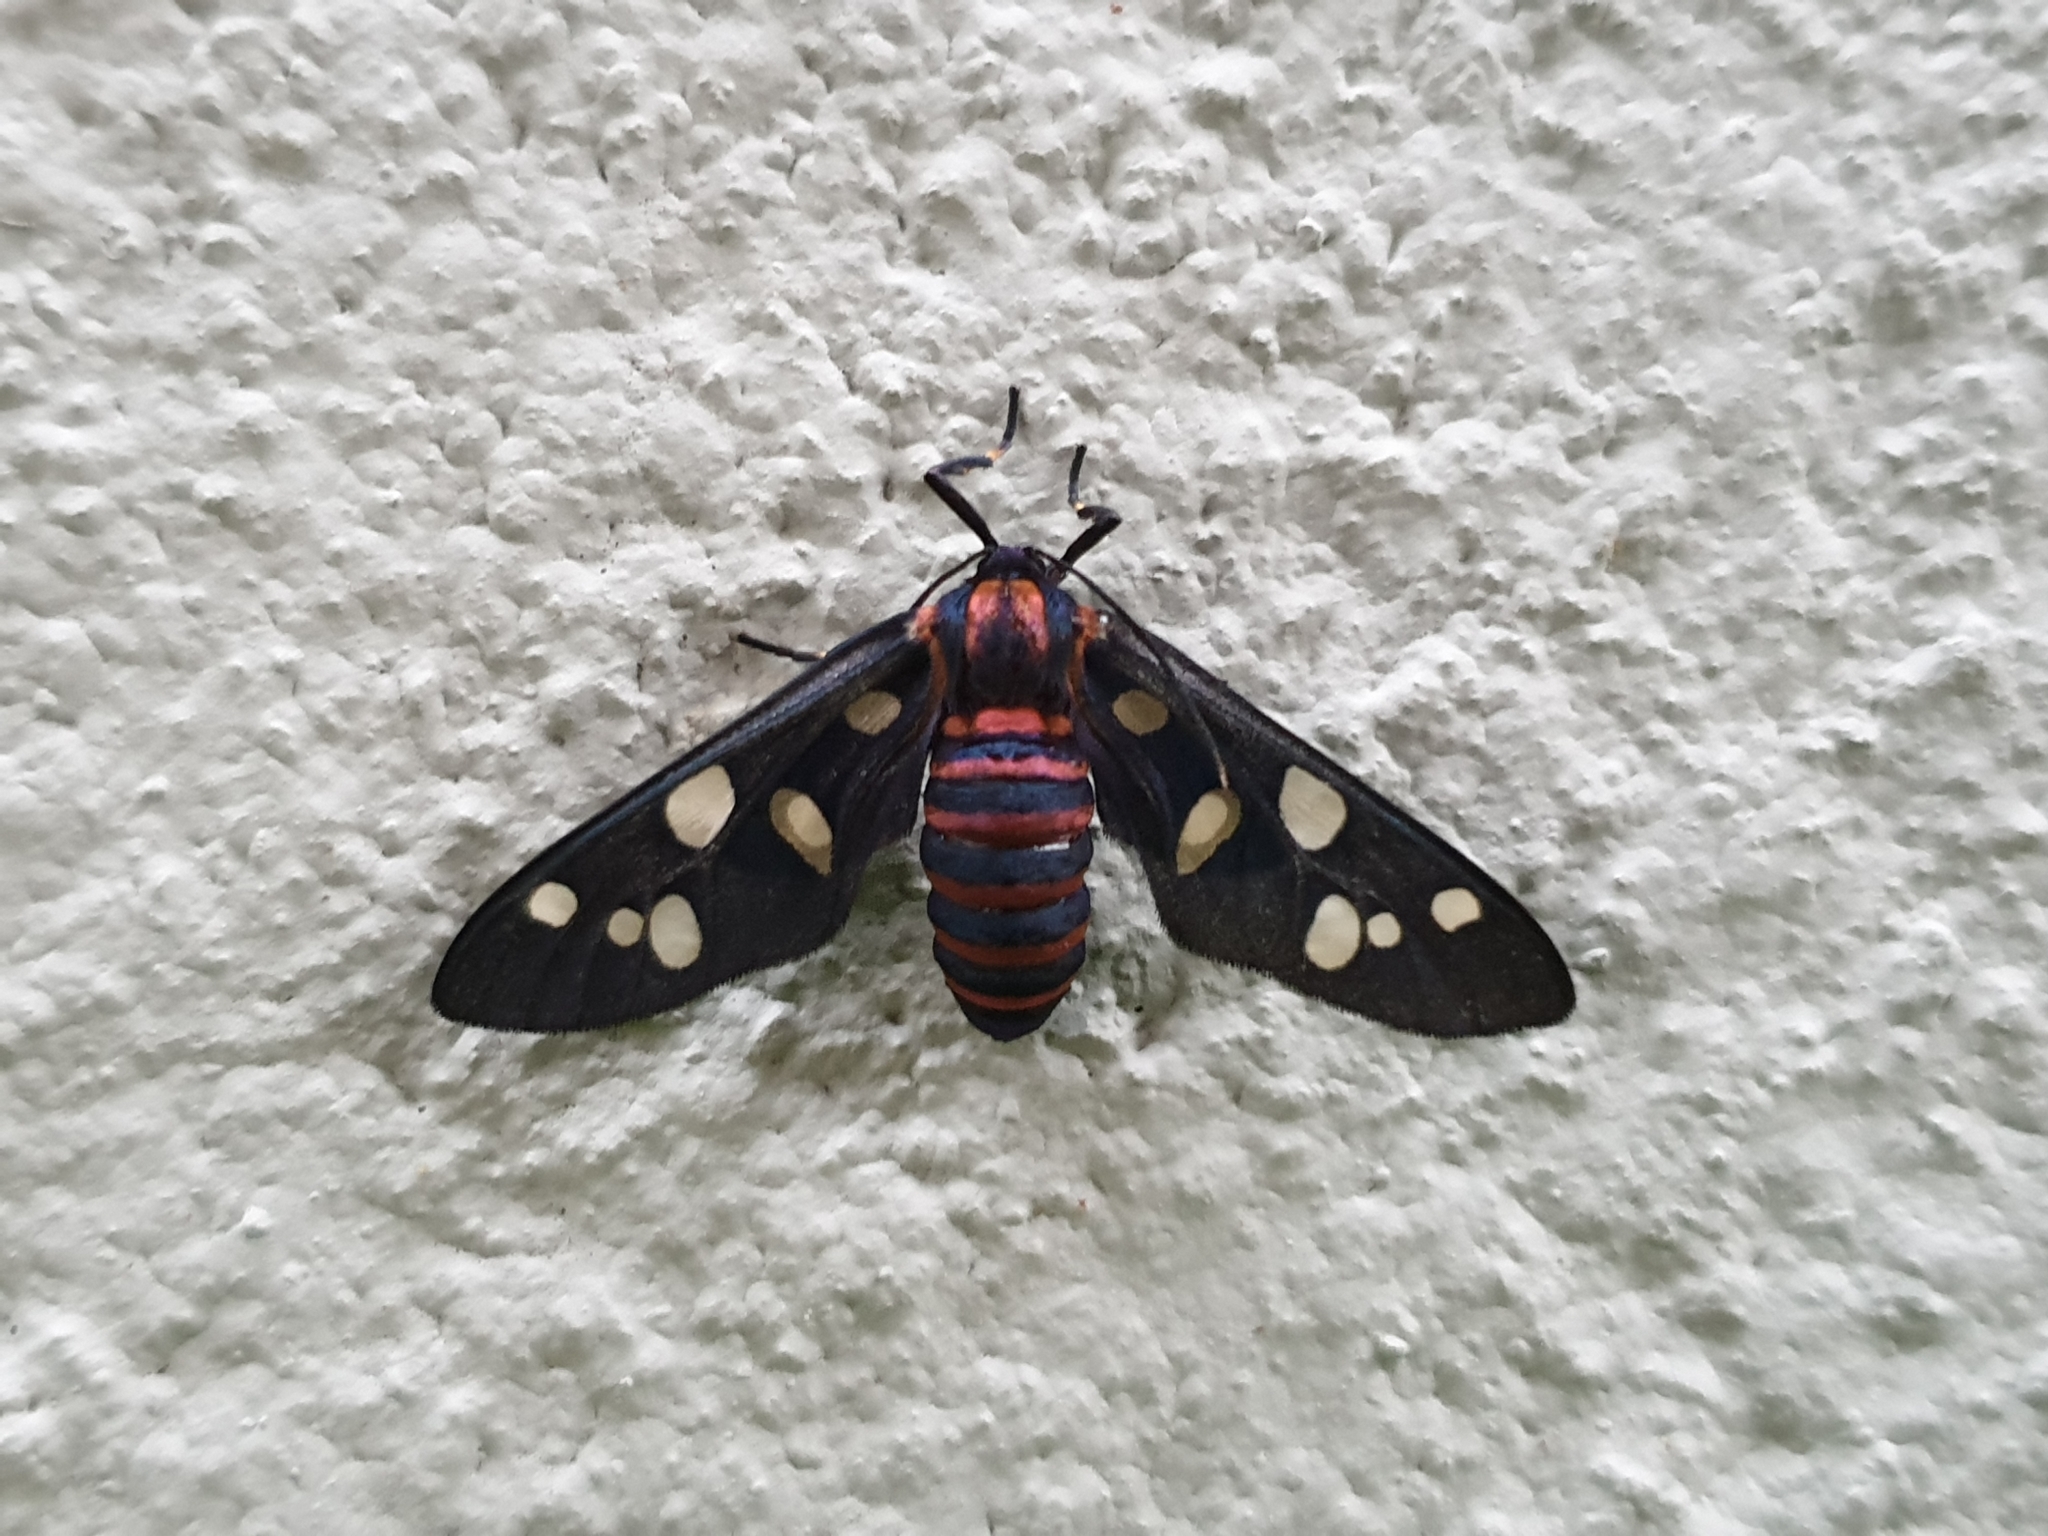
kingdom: Animalia
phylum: Arthropoda
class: Insecta
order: Lepidoptera
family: Erebidae
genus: Amata
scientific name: Amata passalis
